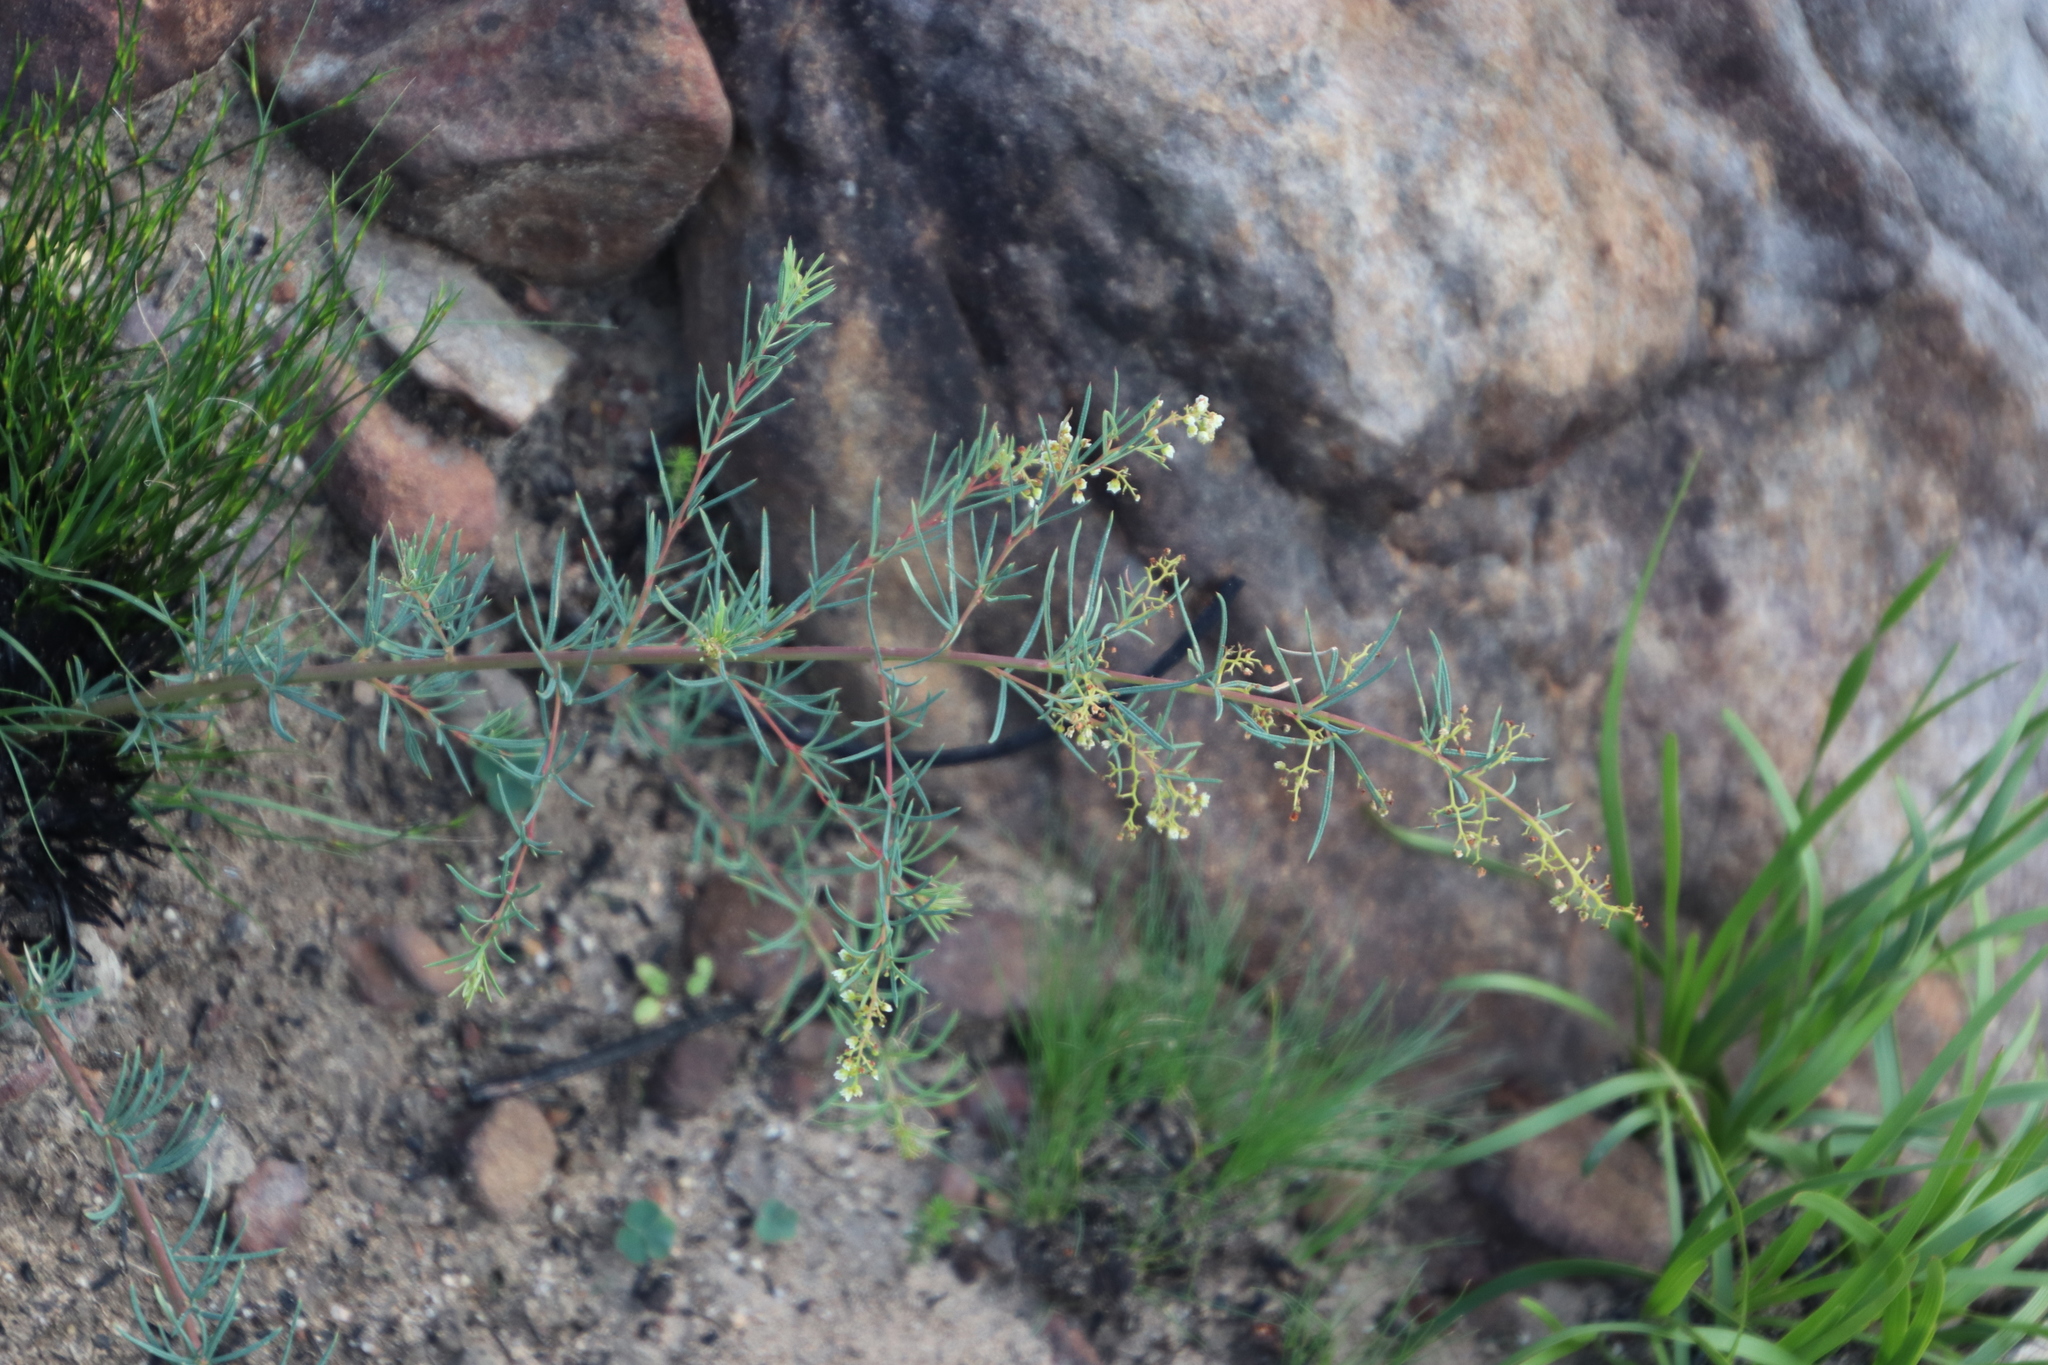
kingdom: Plantae
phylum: Tracheophyta
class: Magnoliopsida
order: Sapindales
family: Anacardiaceae
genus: Searsia
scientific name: Searsia rosmarinifolia
